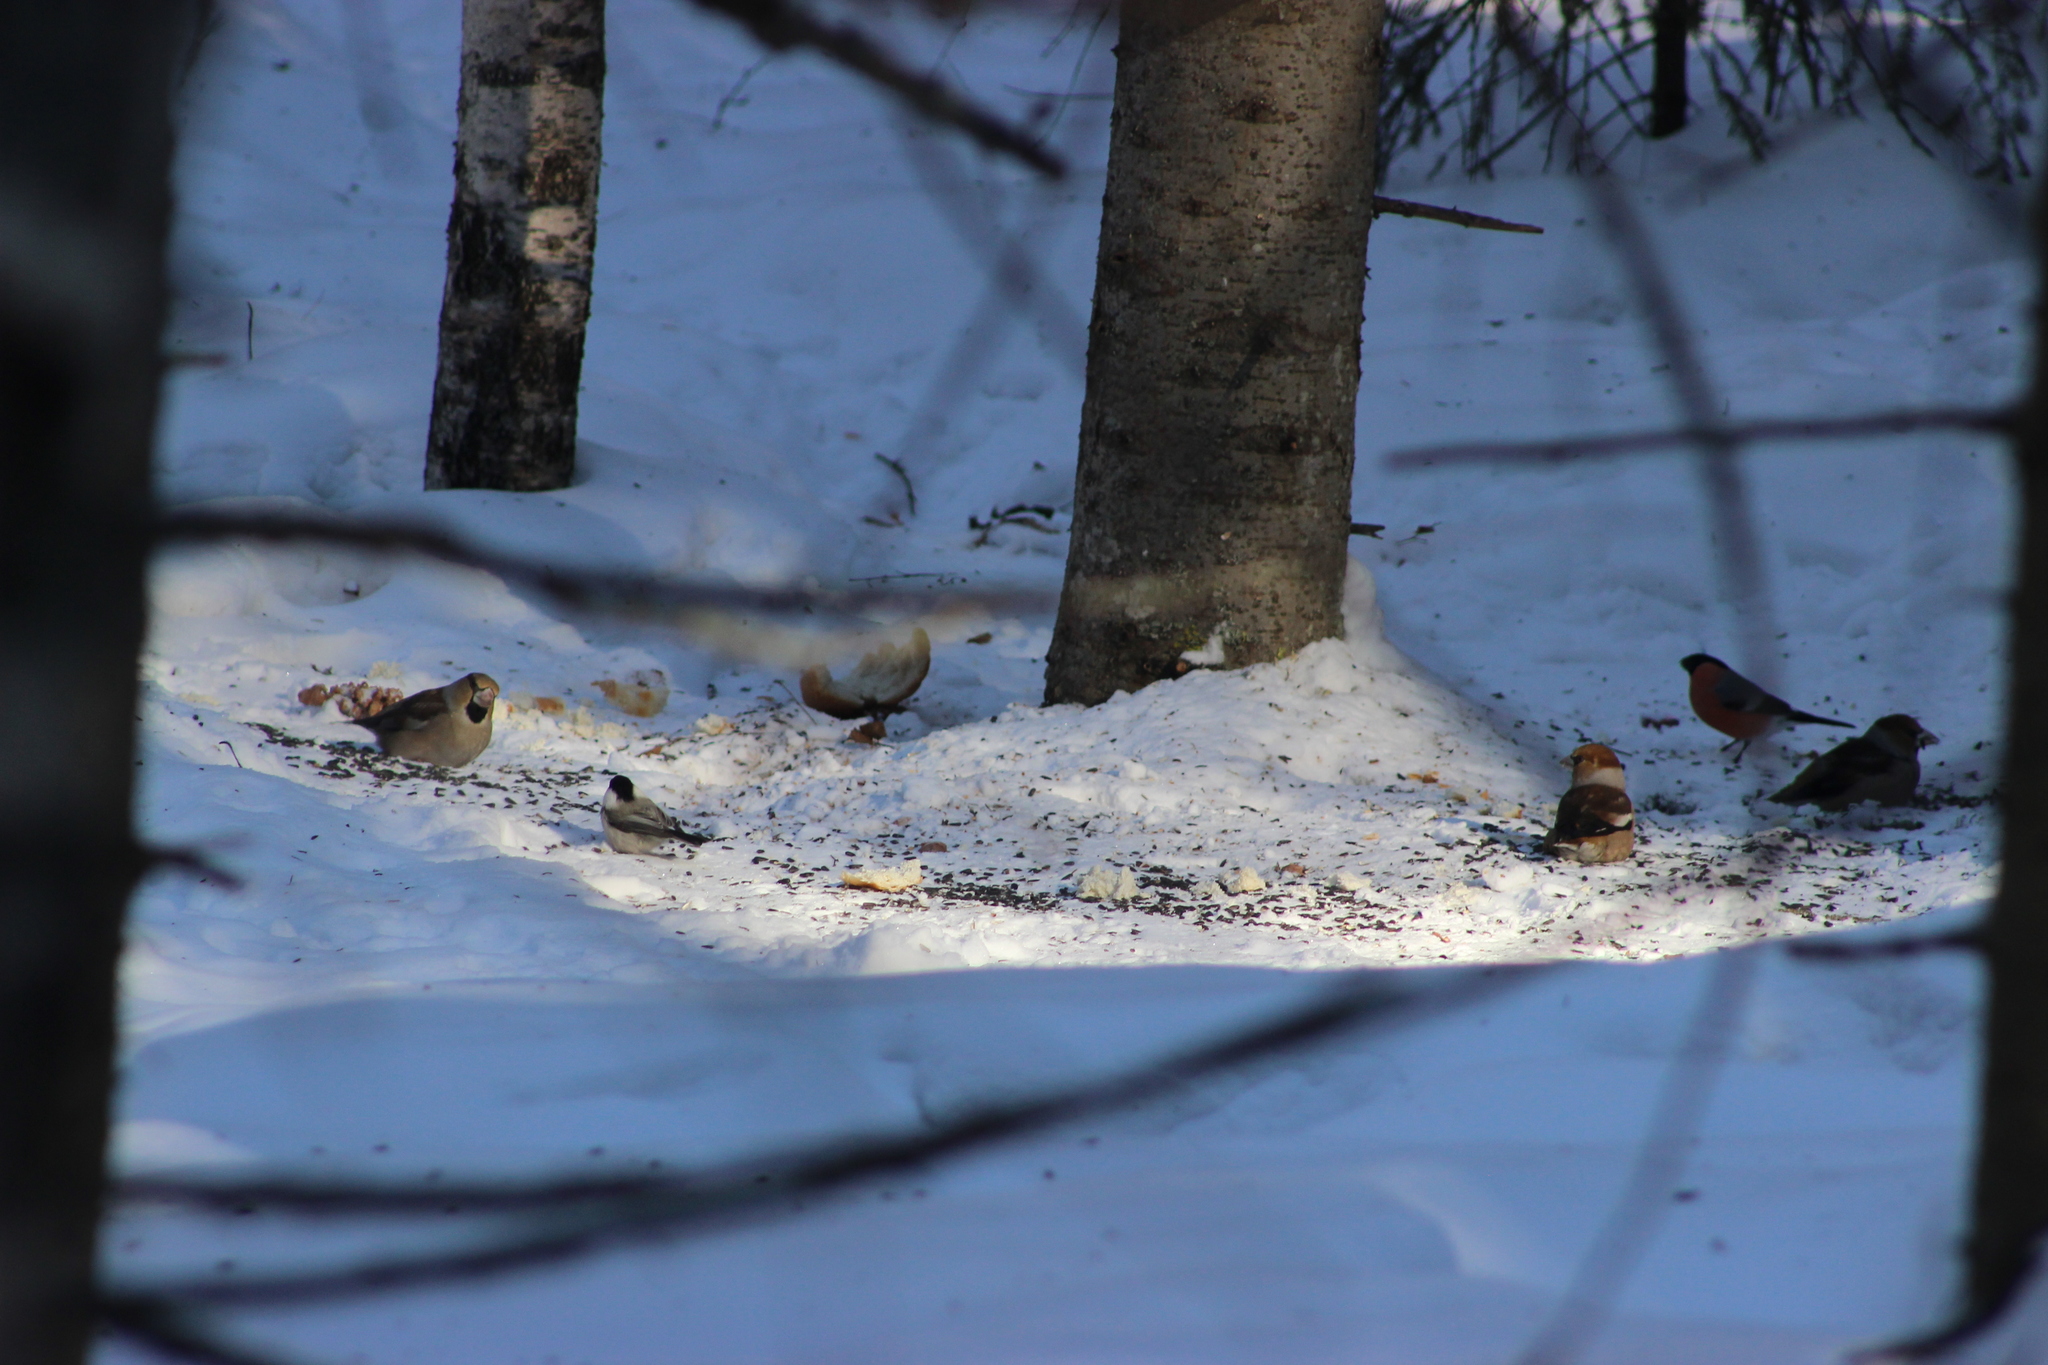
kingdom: Animalia
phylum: Chordata
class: Aves
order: Passeriformes
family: Fringillidae
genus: Coccothraustes
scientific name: Coccothraustes coccothraustes
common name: Hawfinch
